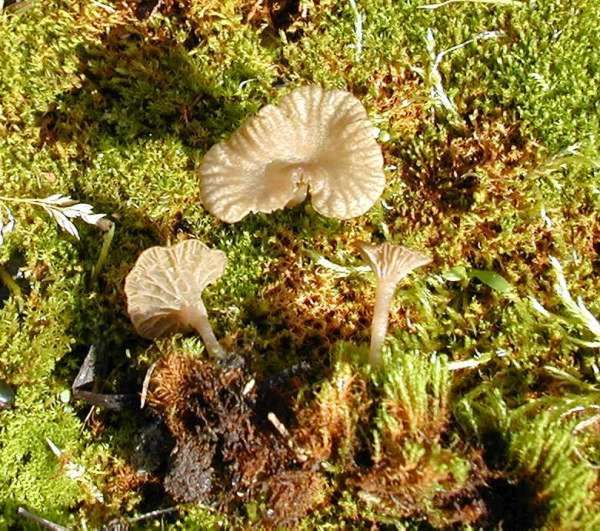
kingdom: Fungi
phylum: Basidiomycota
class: Agaricomycetes
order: Agaricales
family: Hygrophoraceae
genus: Arrhenia
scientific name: Arrhenia rickenii
